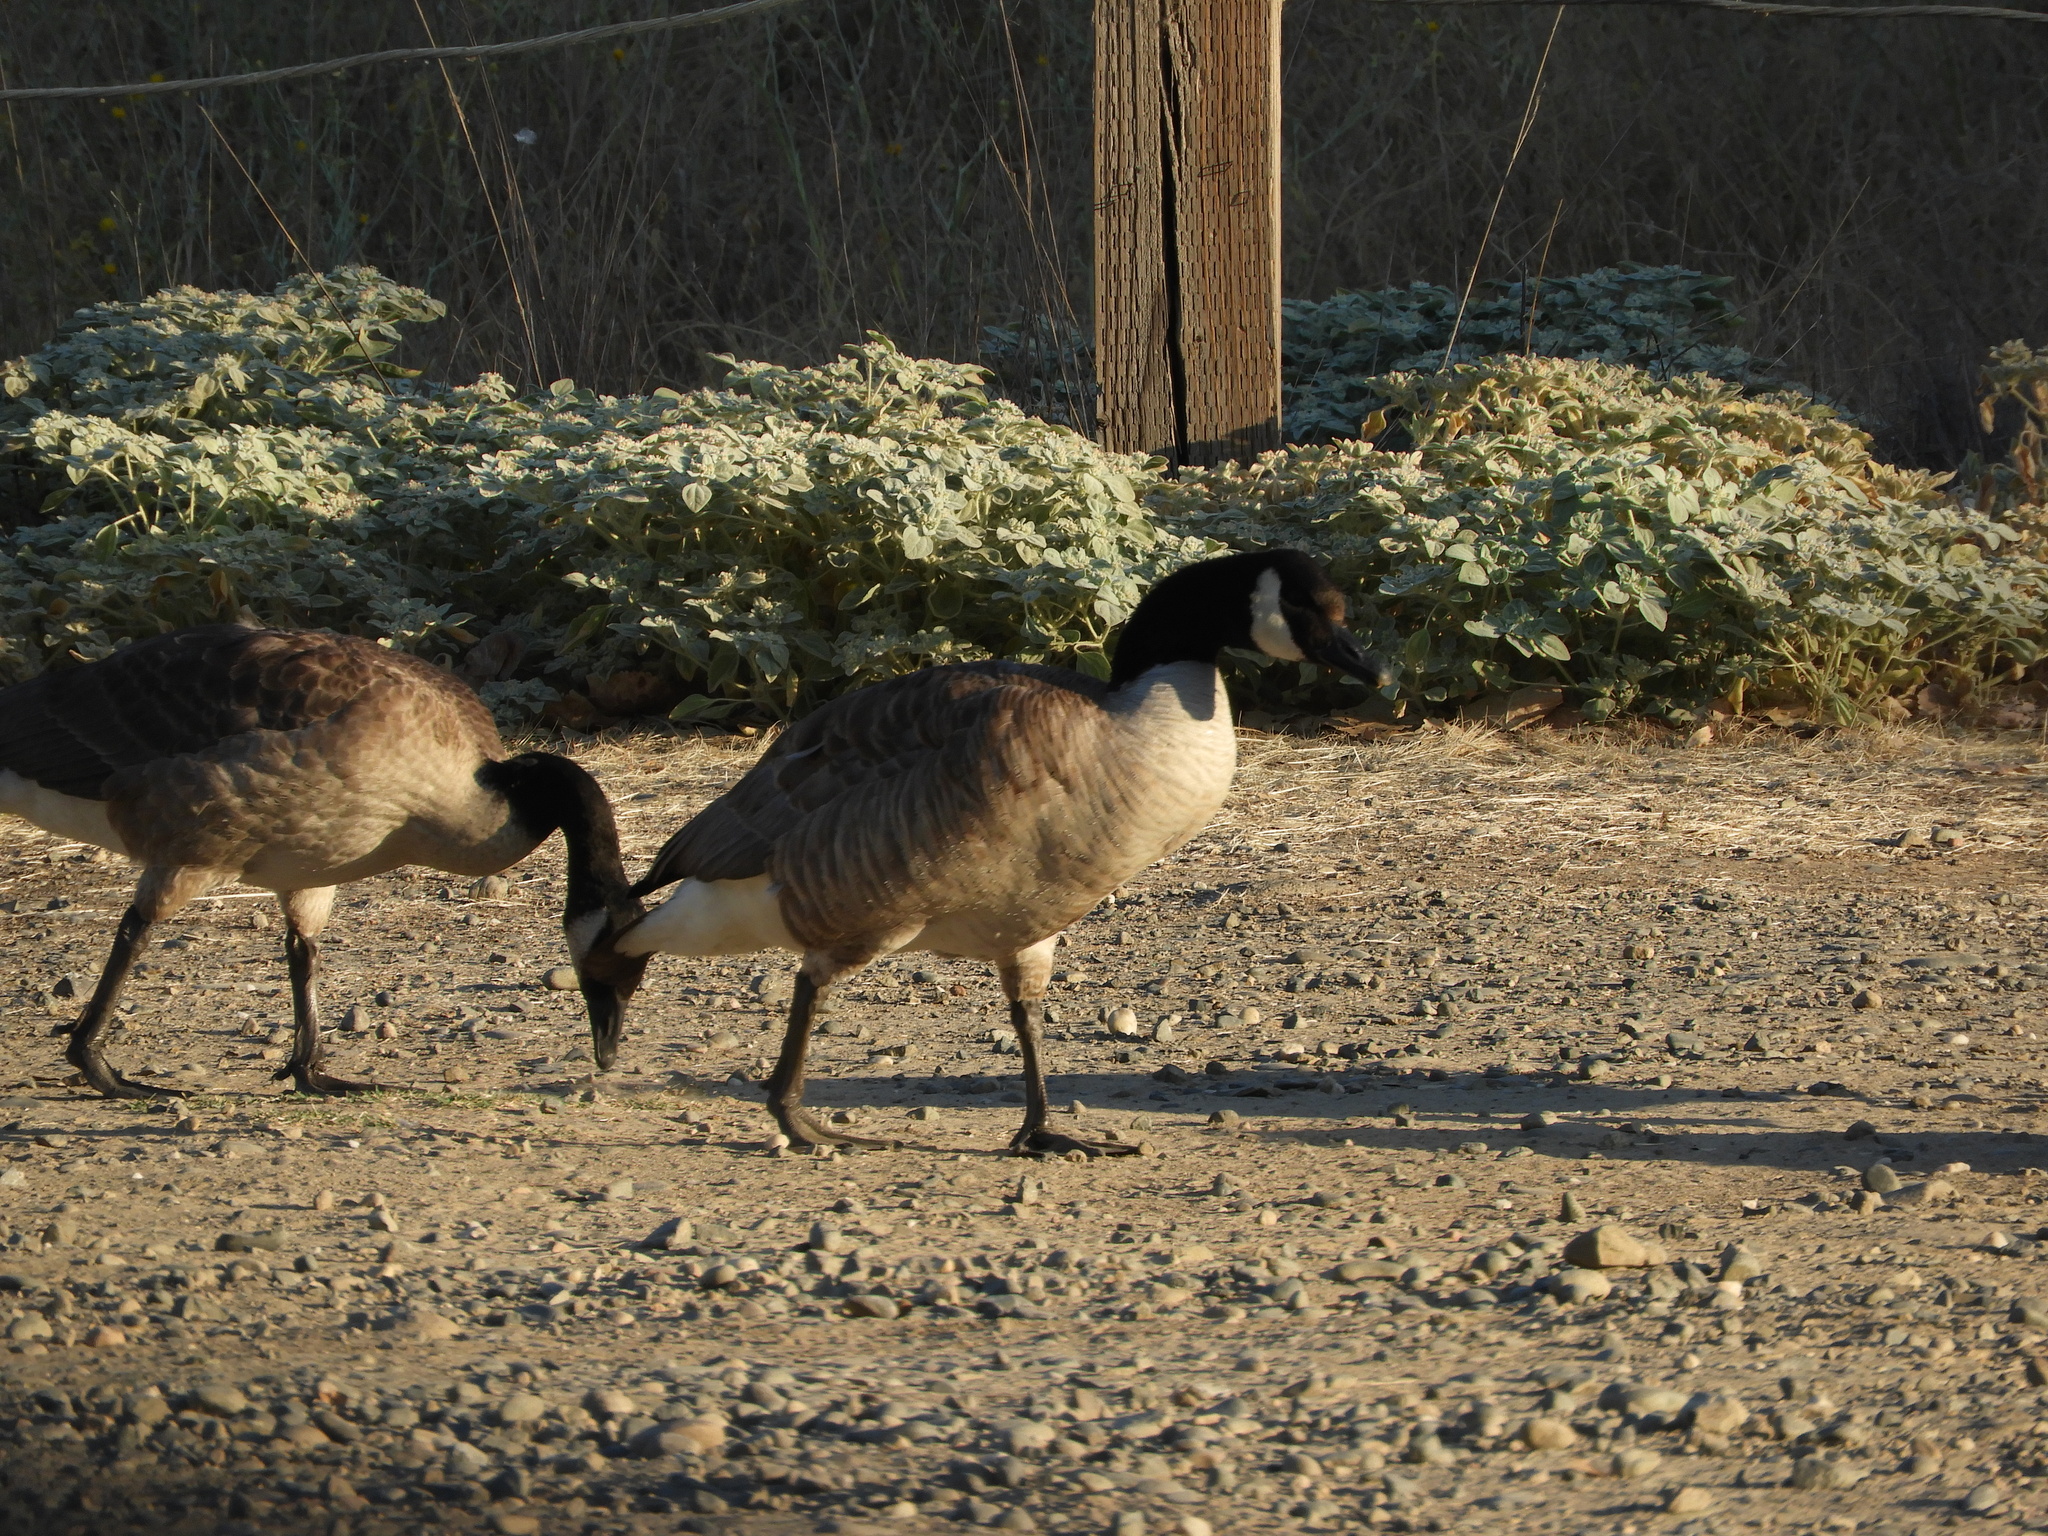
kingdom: Animalia
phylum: Chordata
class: Aves
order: Anseriformes
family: Anatidae
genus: Branta
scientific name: Branta canadensis
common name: Canada goose
